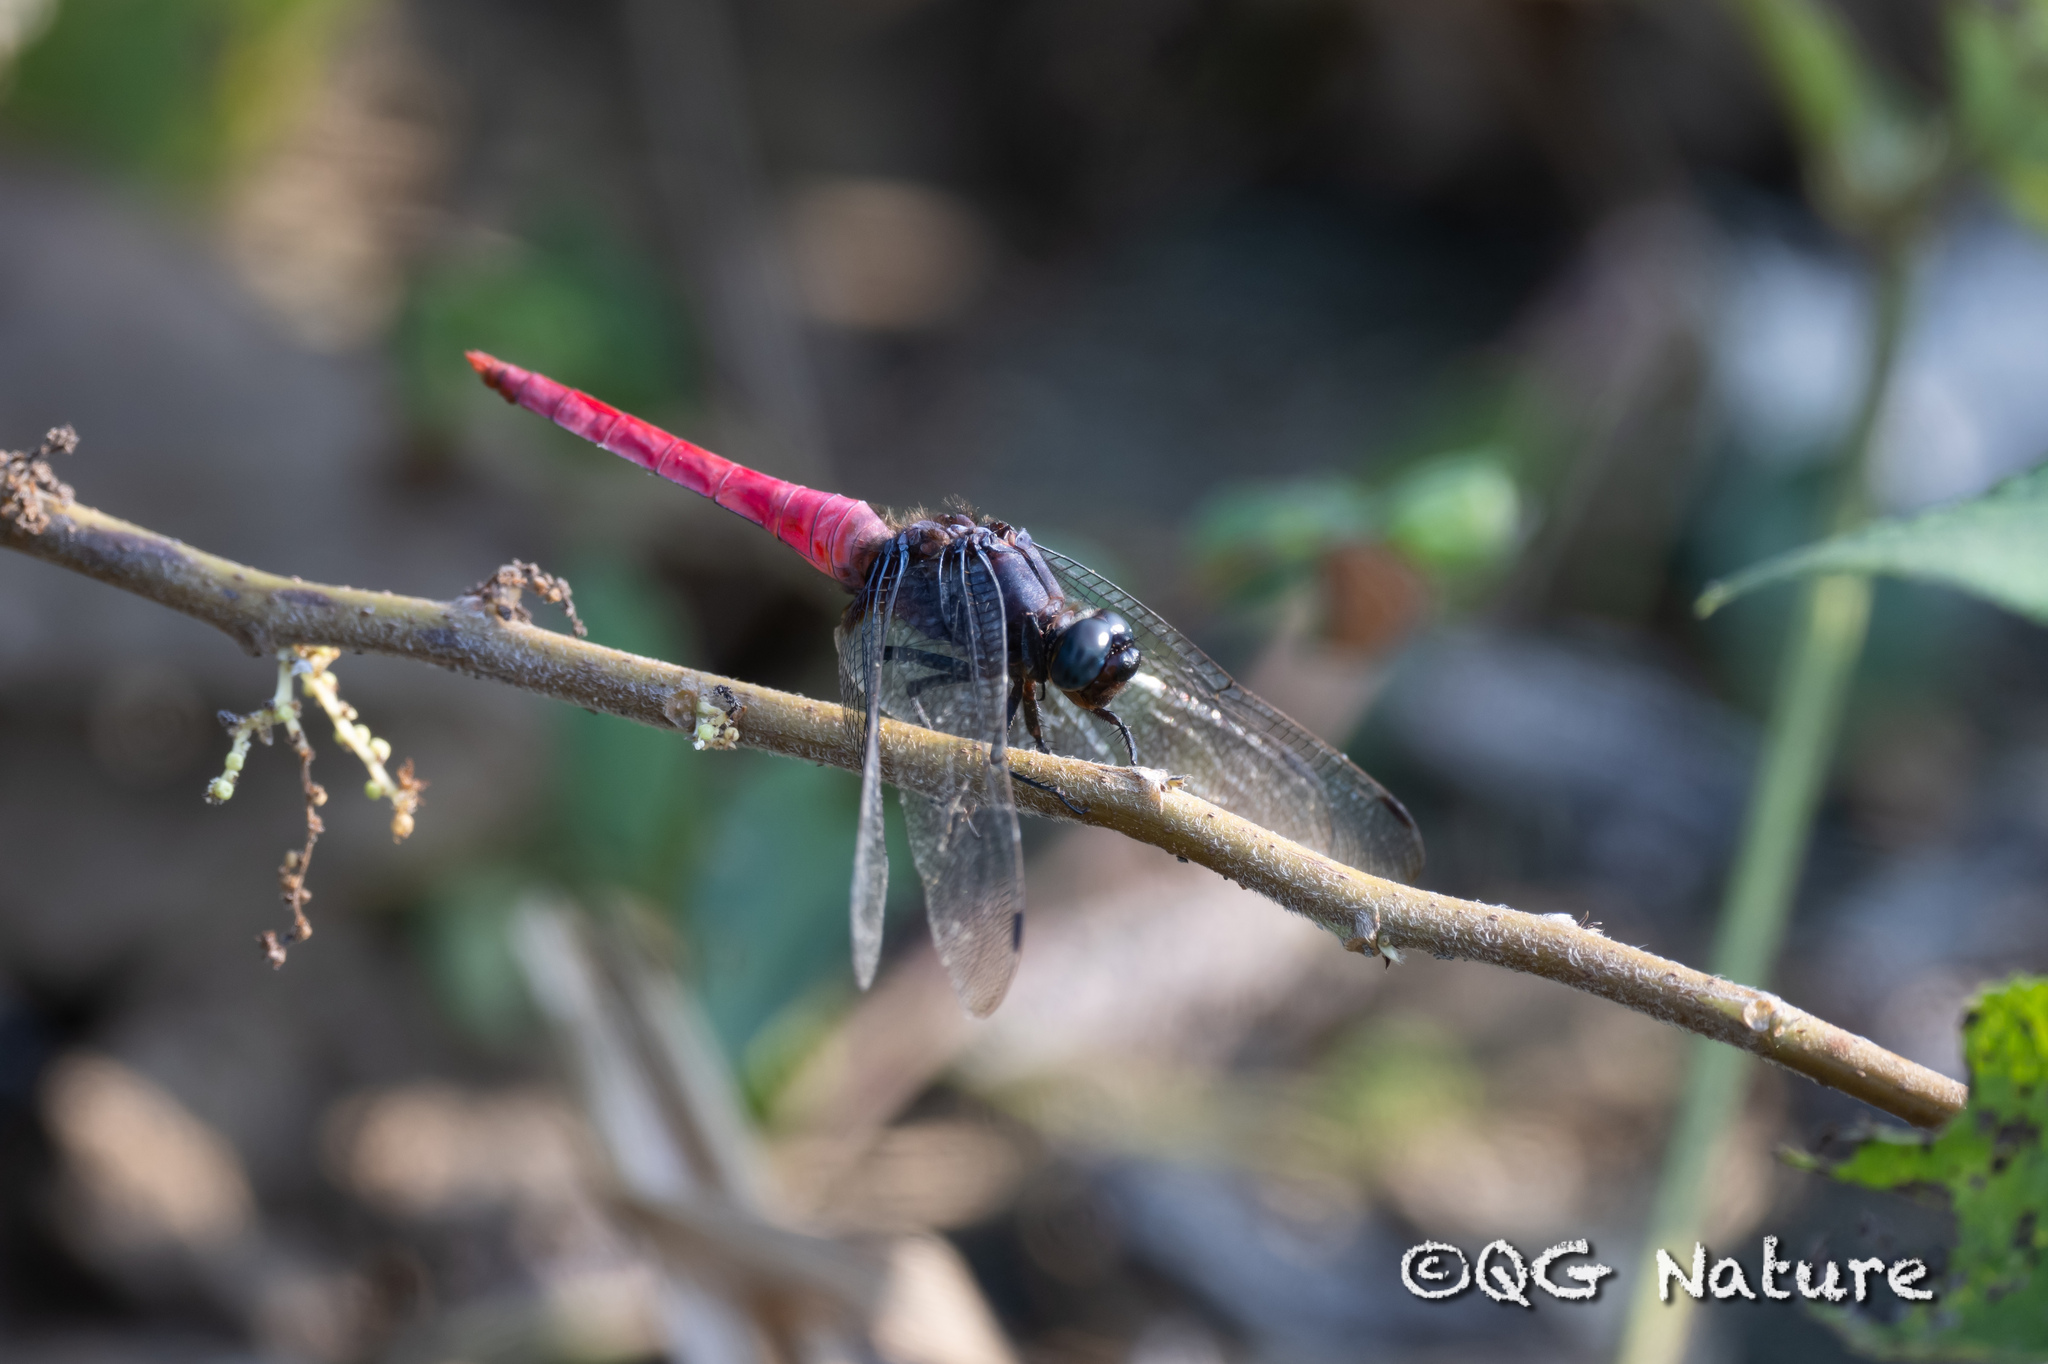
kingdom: Animalia
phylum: Arthropoda
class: Insecta
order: Odonata
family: Libellulidae
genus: Orthetrum
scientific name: Orthetrum pruinosum
